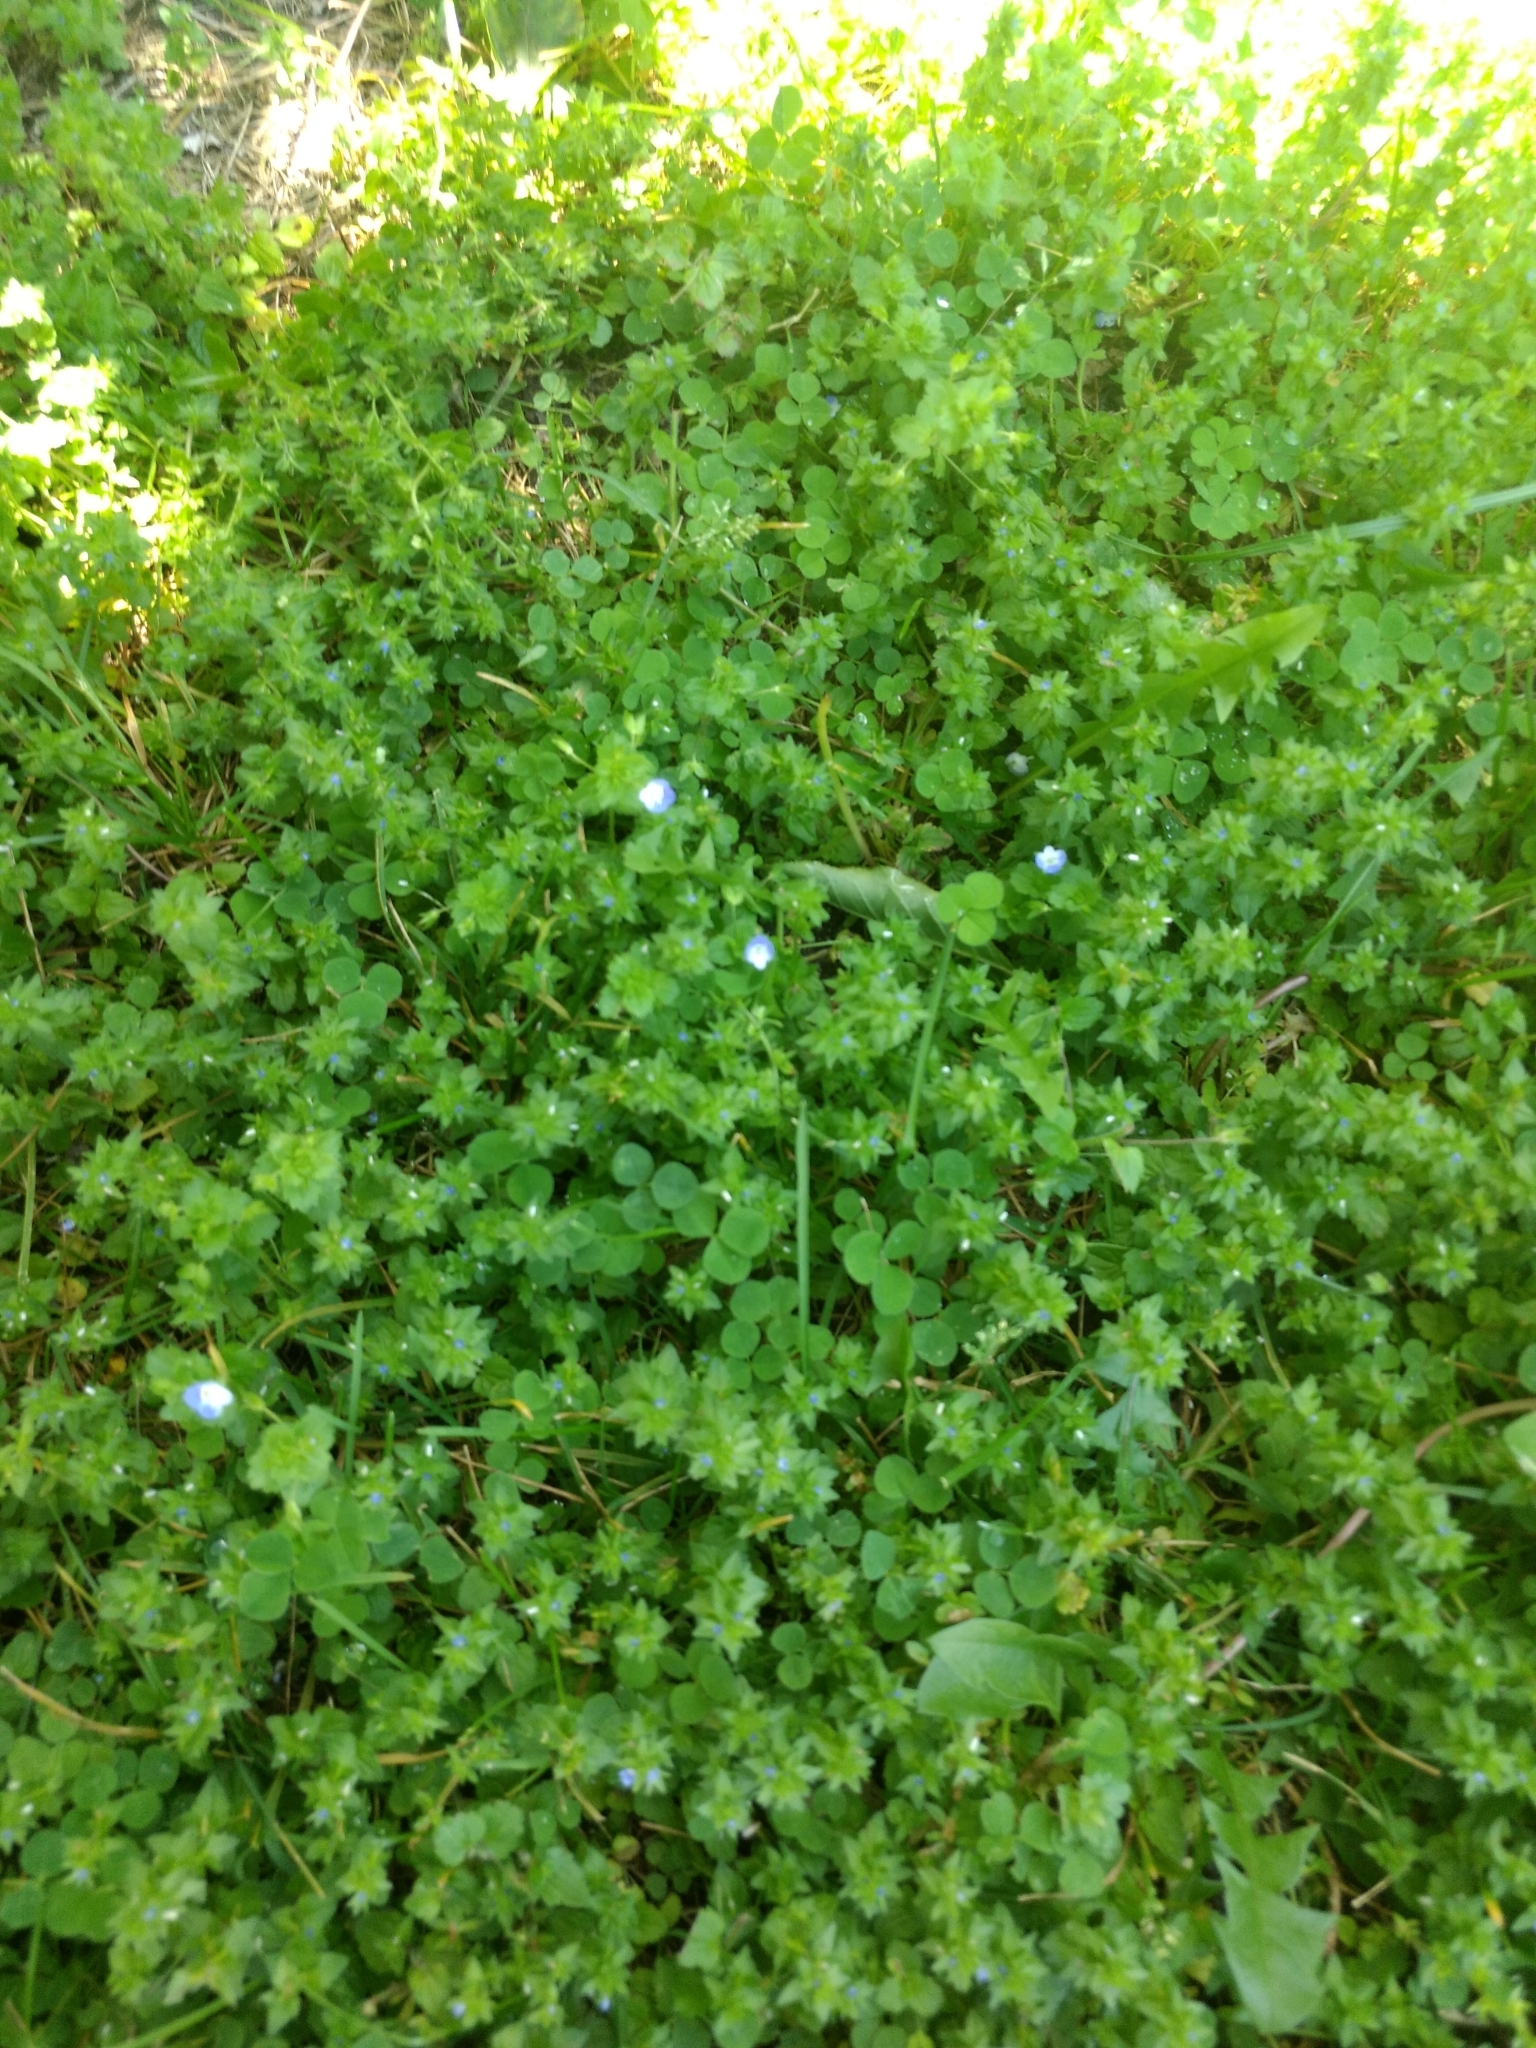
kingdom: Plantae
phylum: Tracheophyta
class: Magnoliopsida
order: Lamiales
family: Plantaginaceae
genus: Veronica
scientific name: Veronica persica
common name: Common field-speedwell
